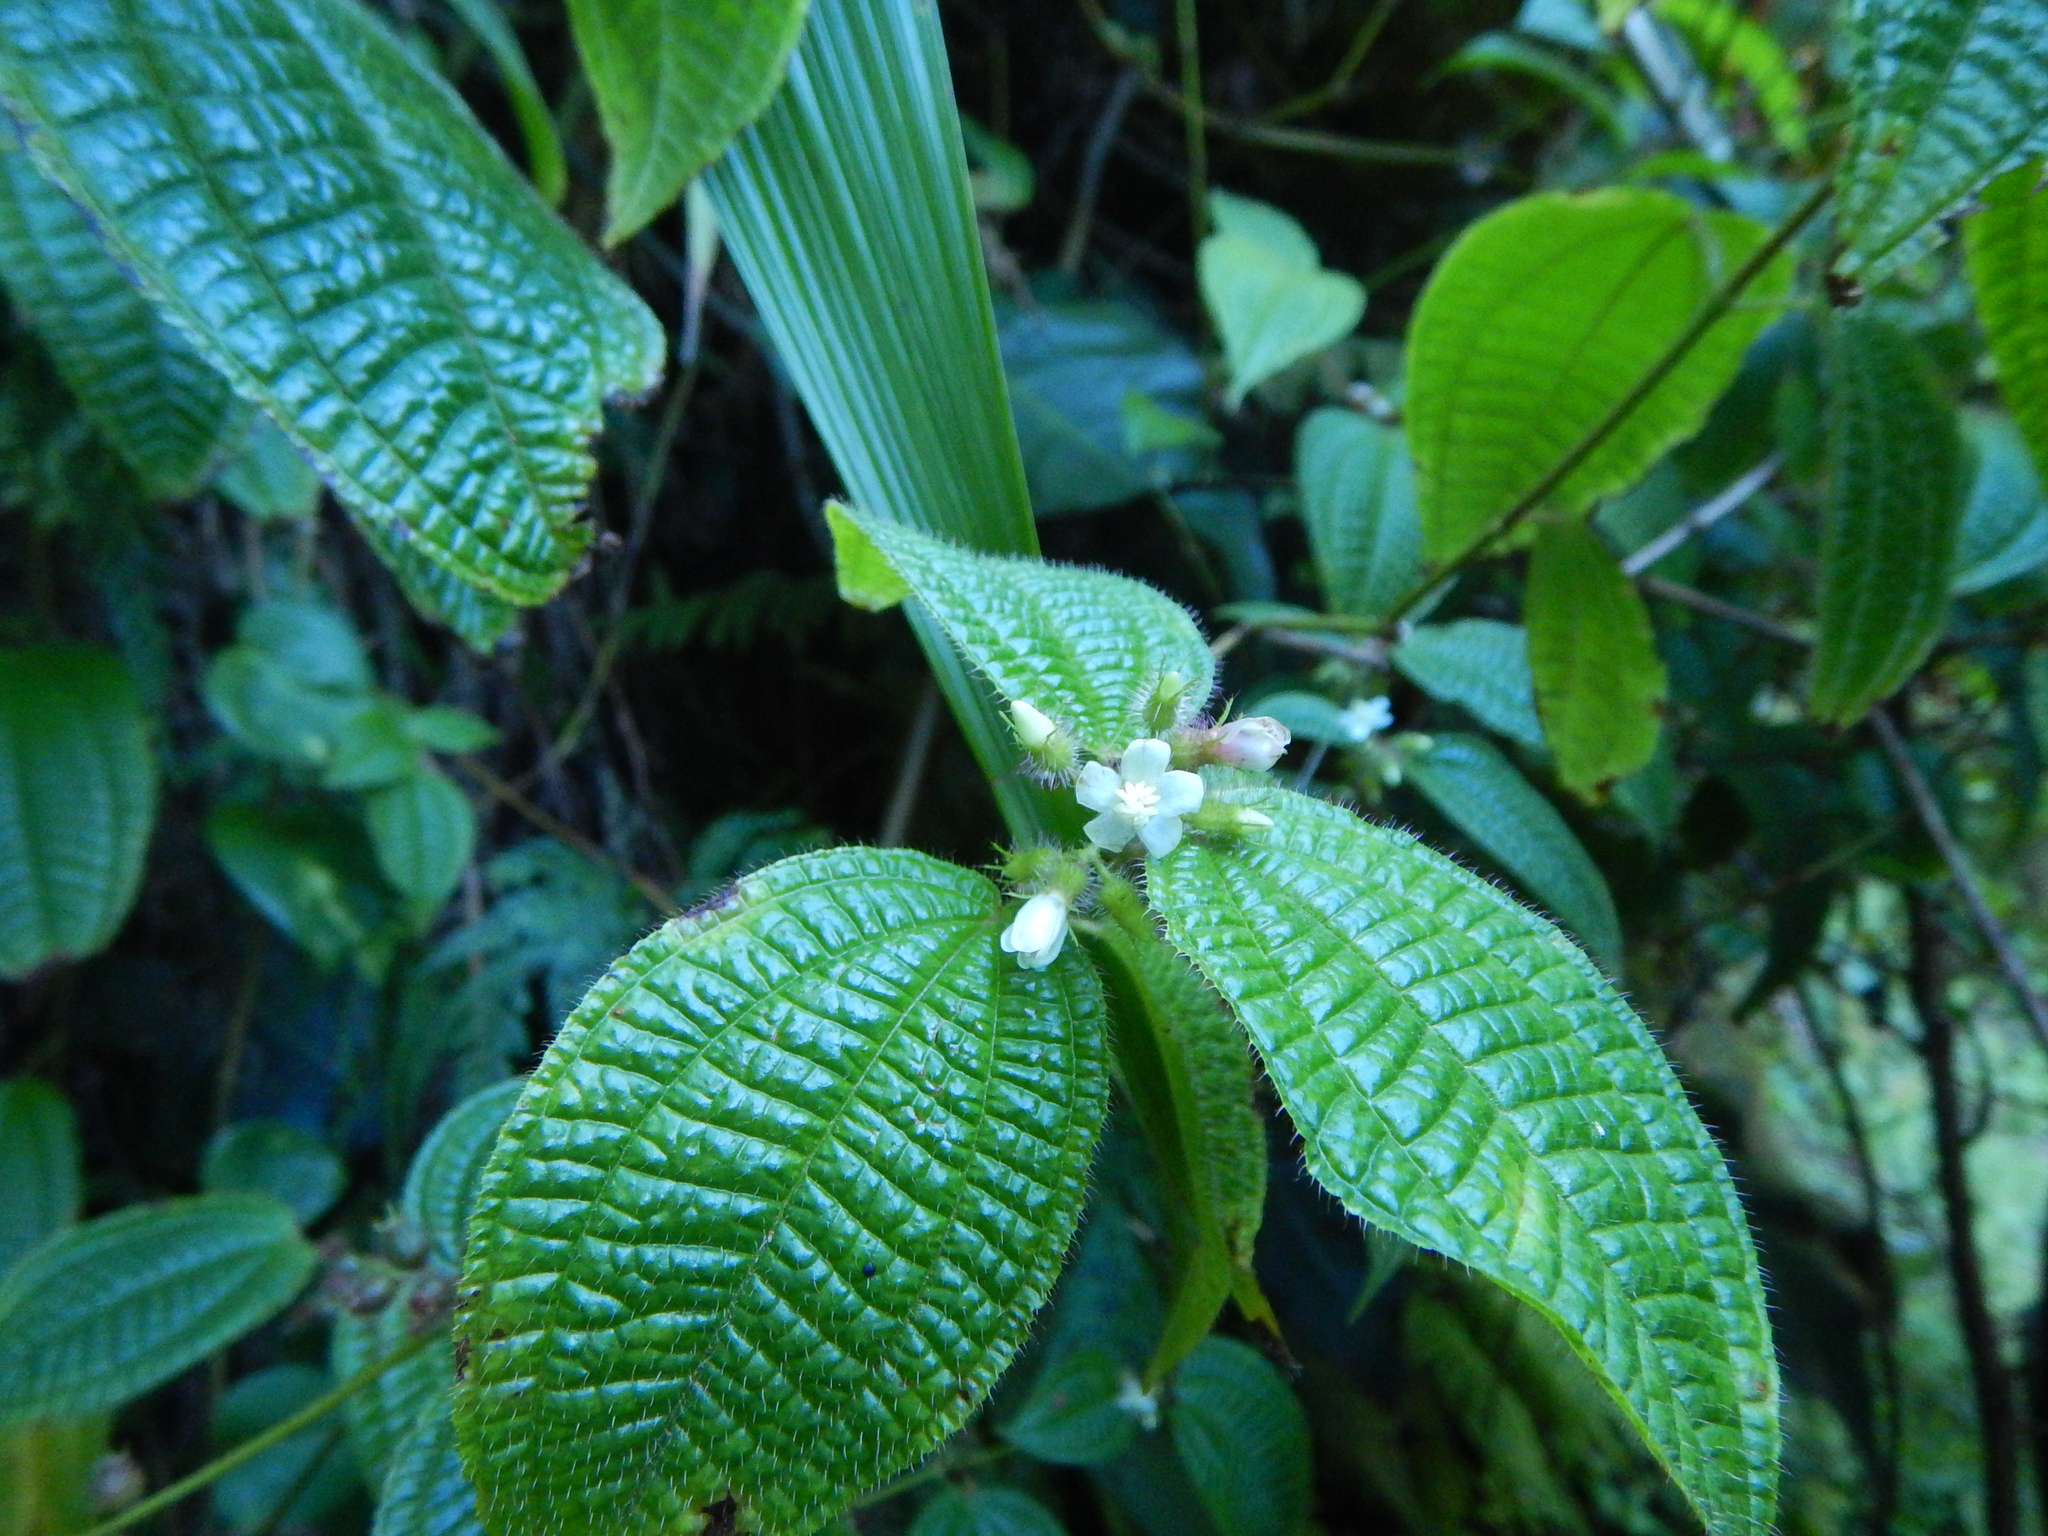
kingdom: Plantae
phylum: Tracheophyta
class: Magnoliopsida
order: Myrtales
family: Melastomataceae
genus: Miconia
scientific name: Miconia crenata
